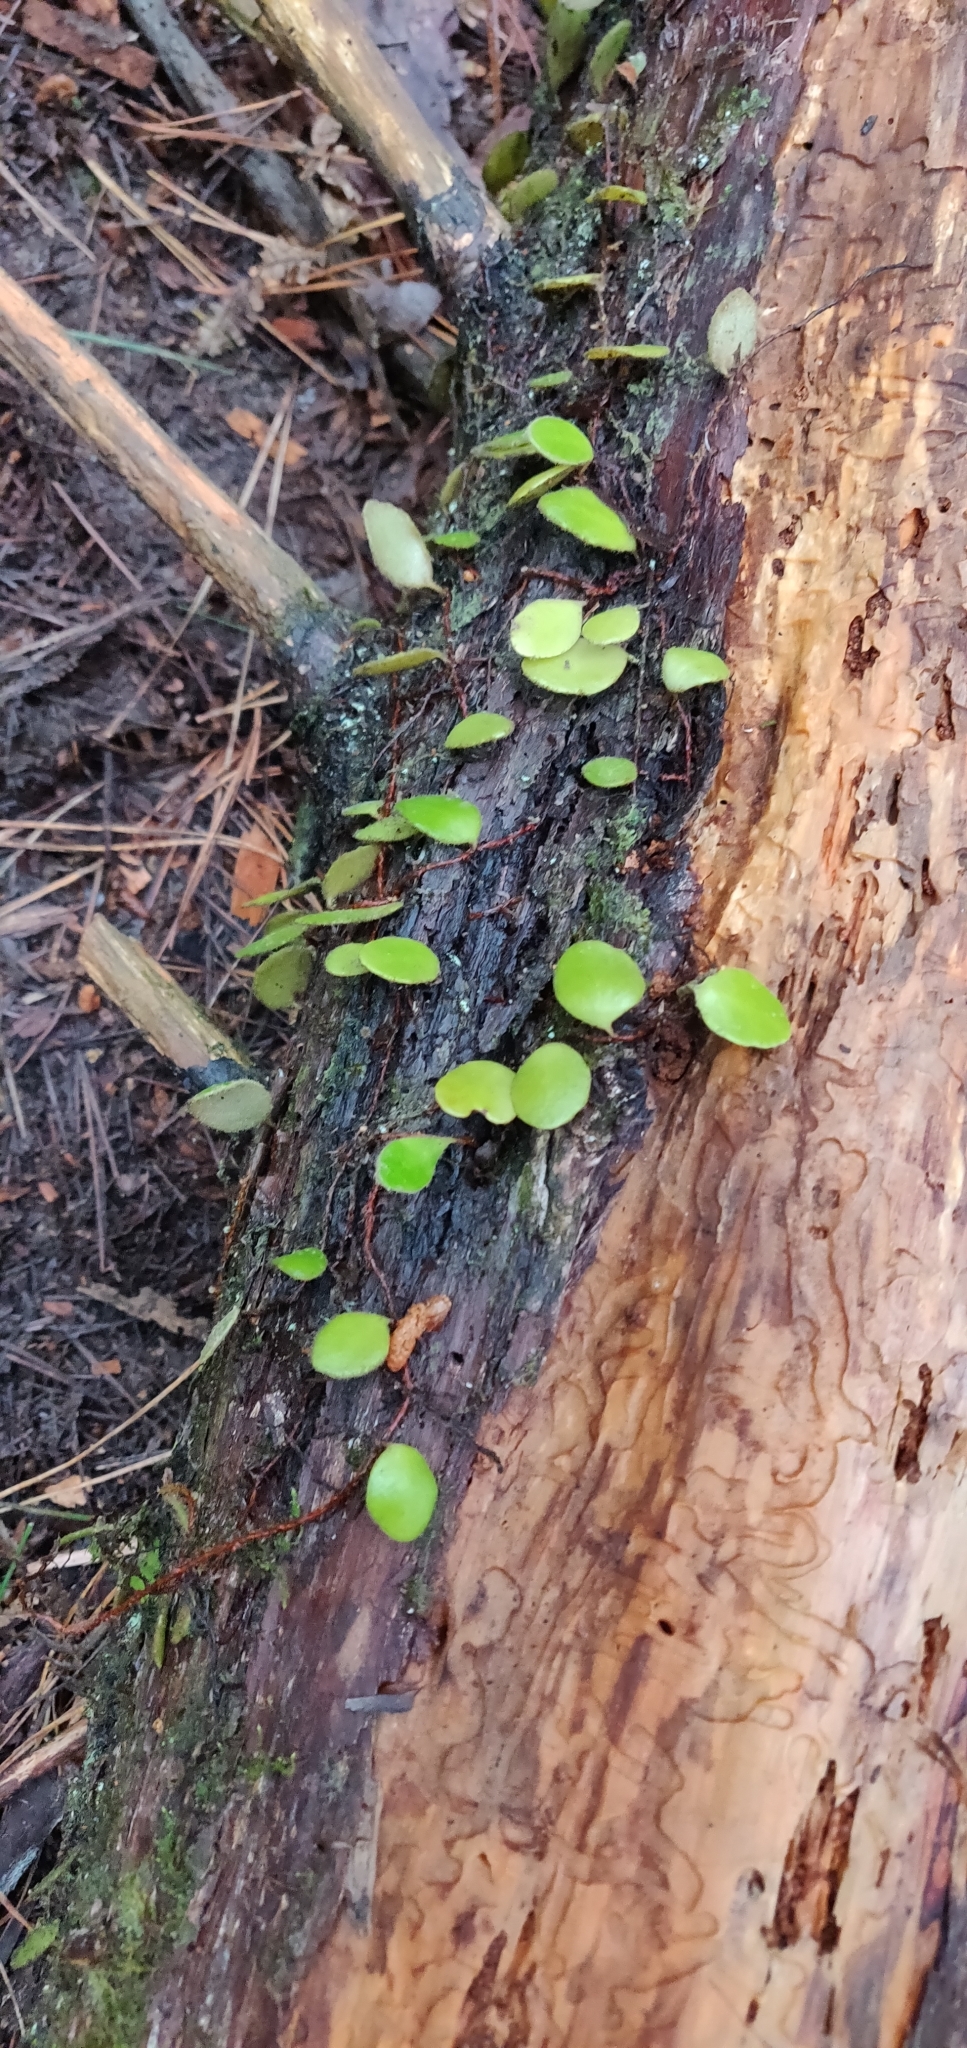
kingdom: Plantae
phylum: Tracheophyta
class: Polypodiopsida
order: Polypodiales
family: Polypodiaceae
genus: Pyrrosia
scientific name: Pyrrosia eleagnifolia
